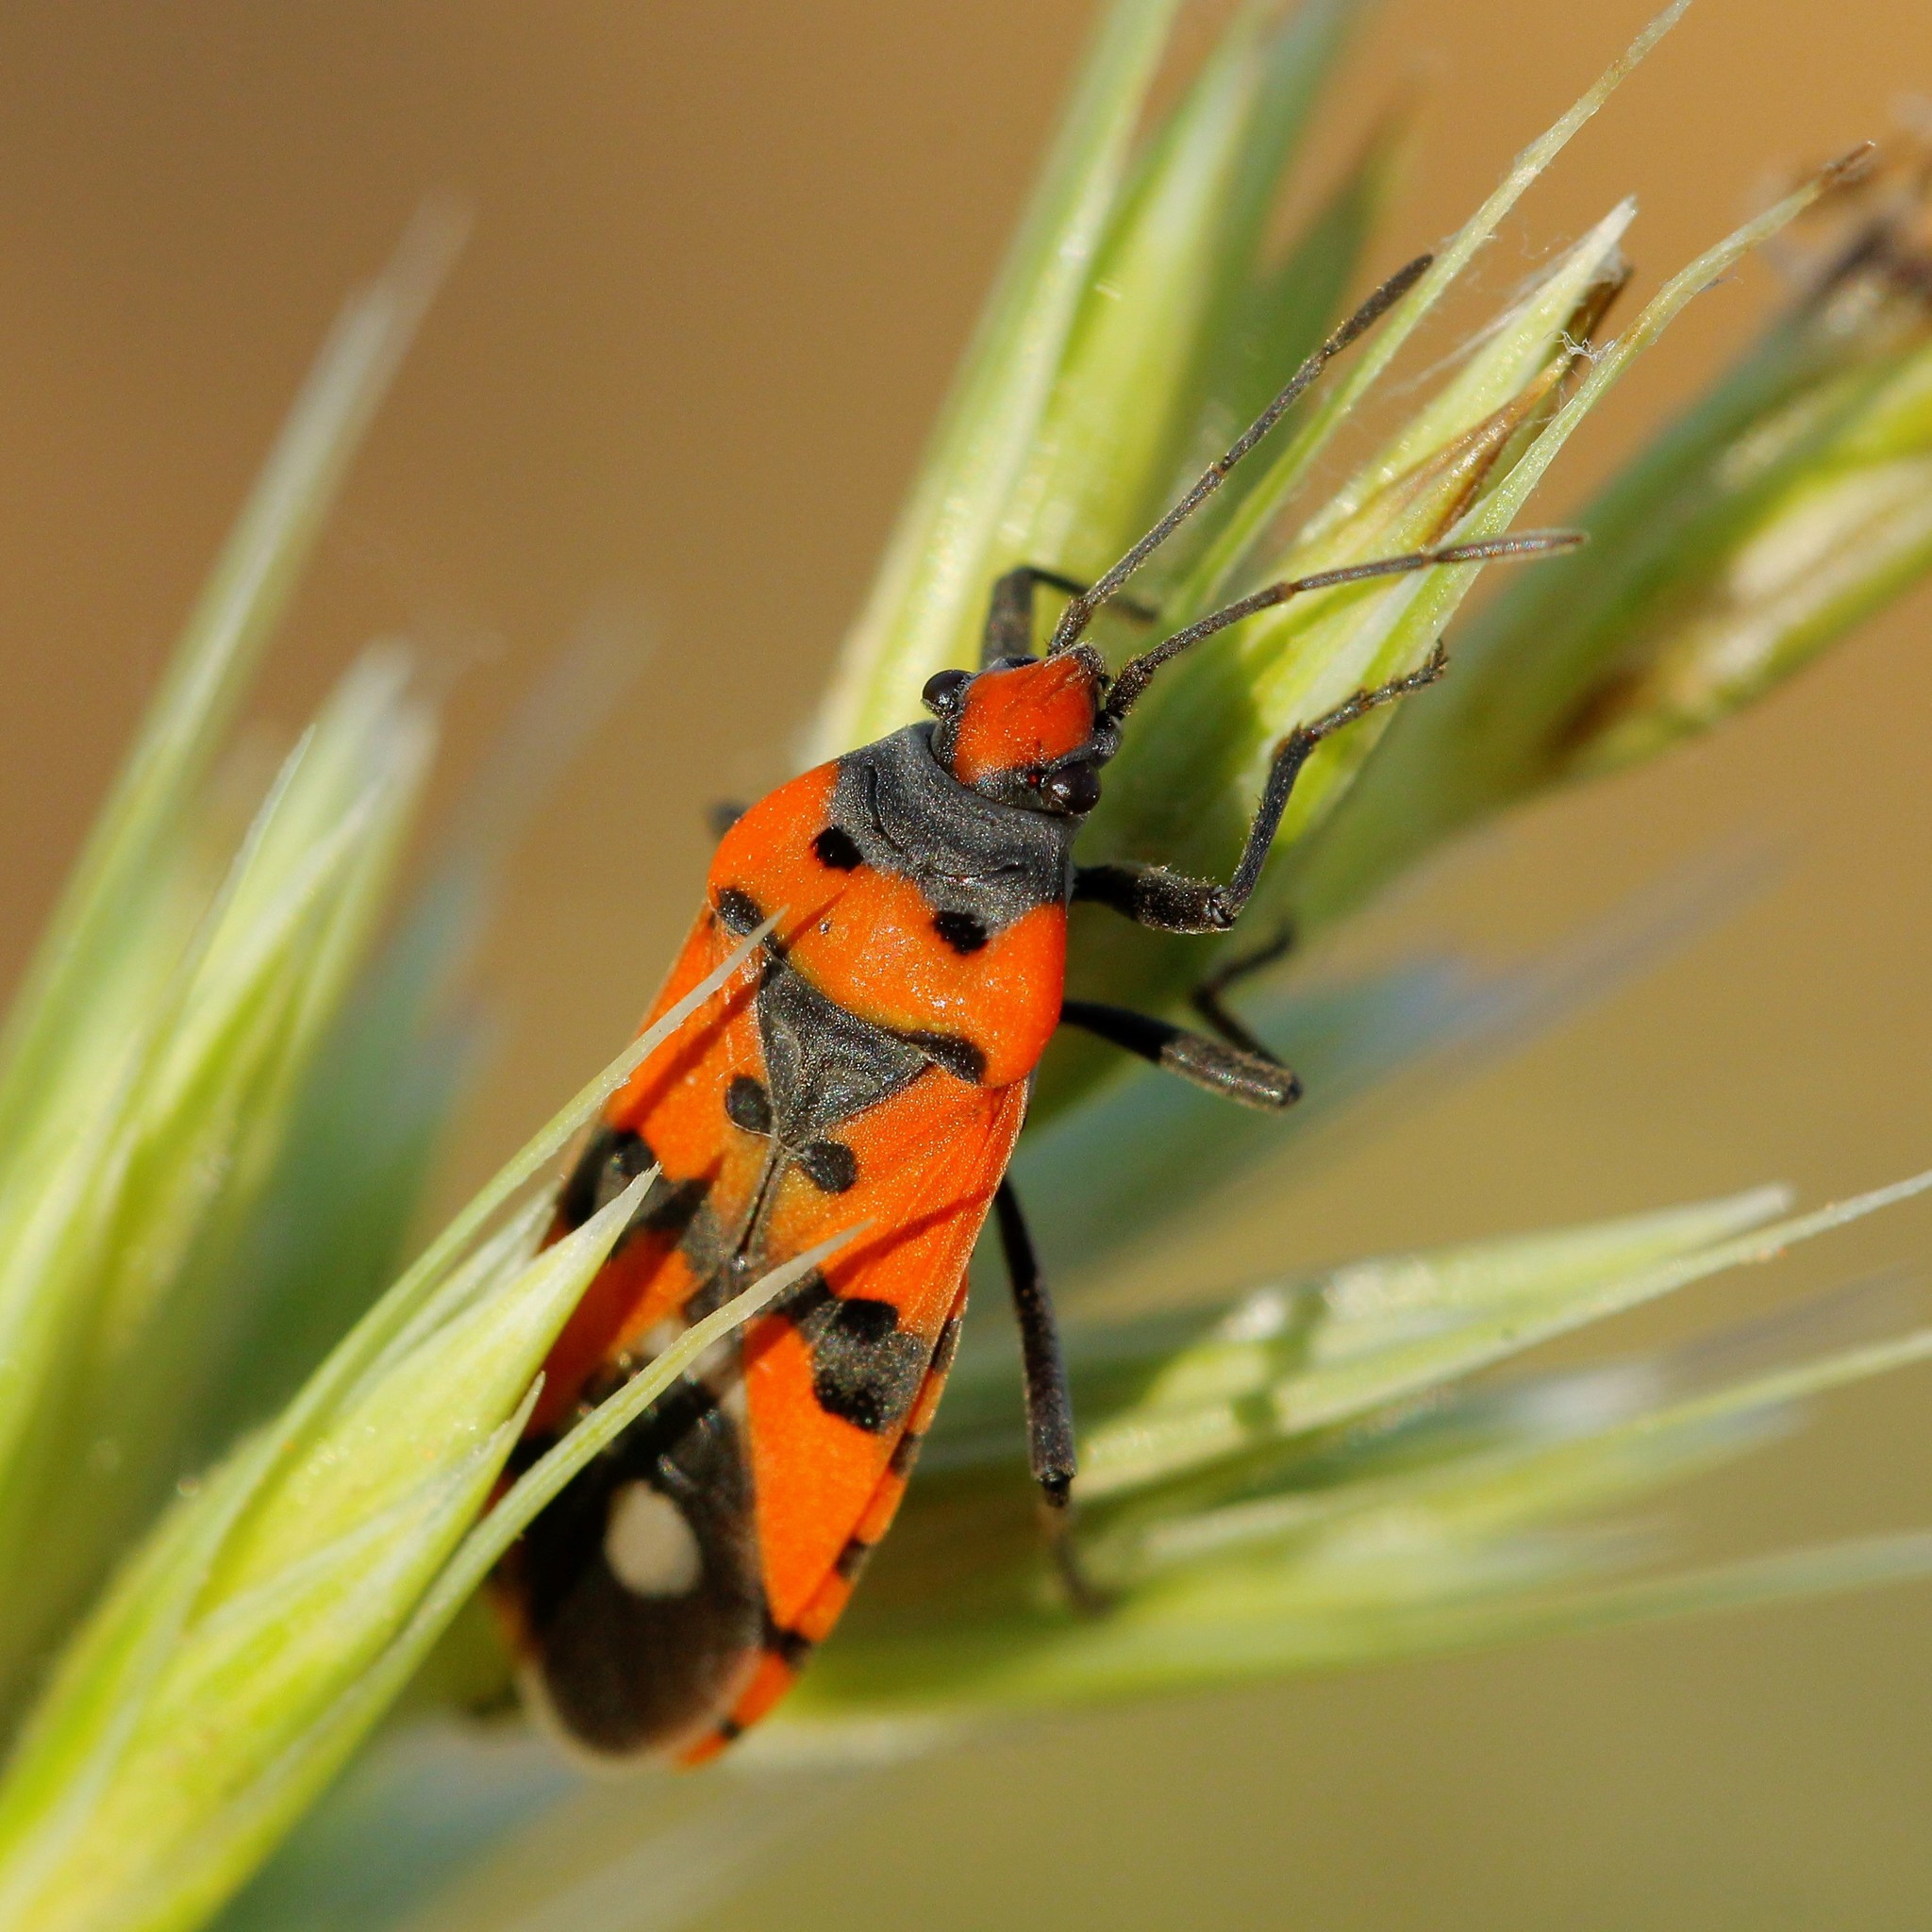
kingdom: Animalia
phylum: Arthropoda
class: Insecta
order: Hemiptera
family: Lygaeidae
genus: Lygaeus
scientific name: Lygaeus simulans
